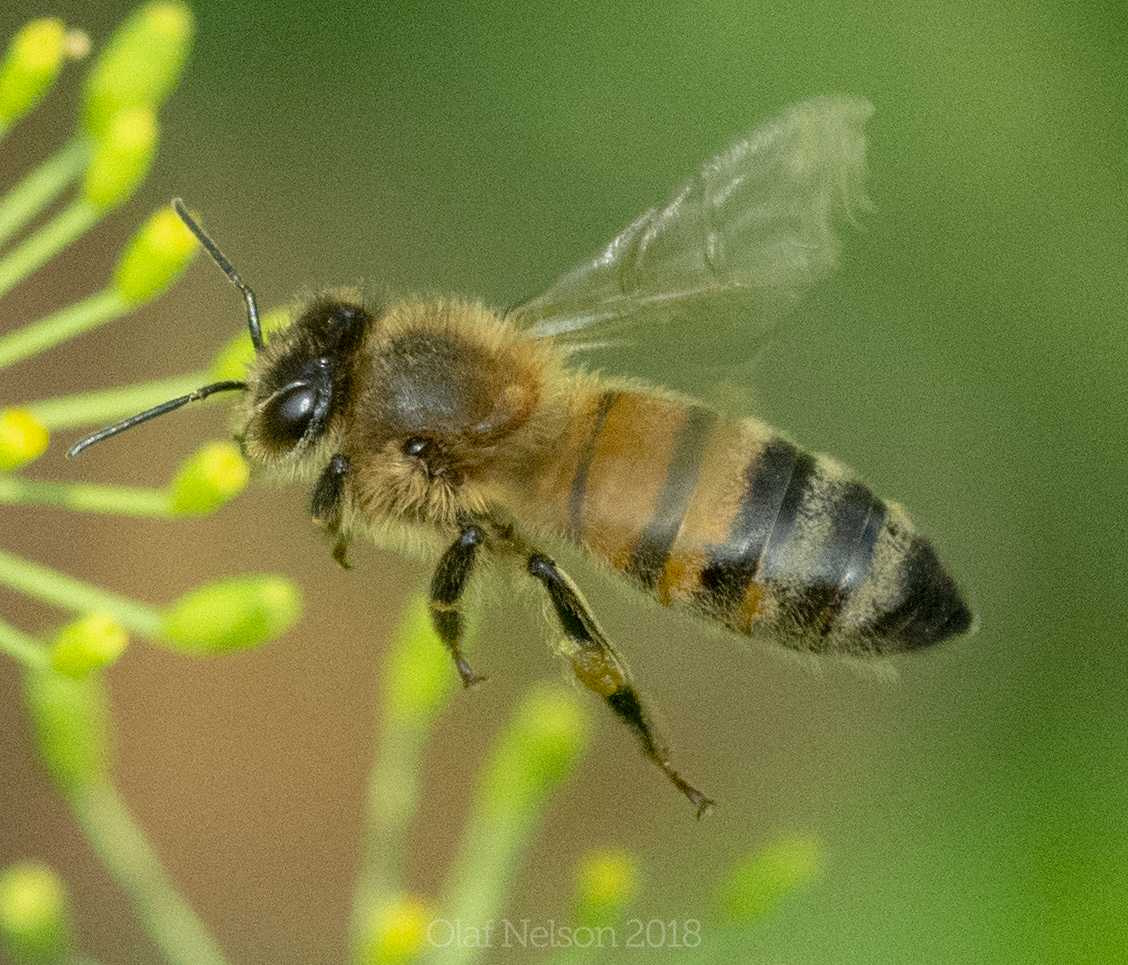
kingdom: Animalia
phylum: Arthropoda
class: Insecta
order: Hymenoptera
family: Apidae
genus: Apis
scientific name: Apis mellifera
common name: Honey bee
